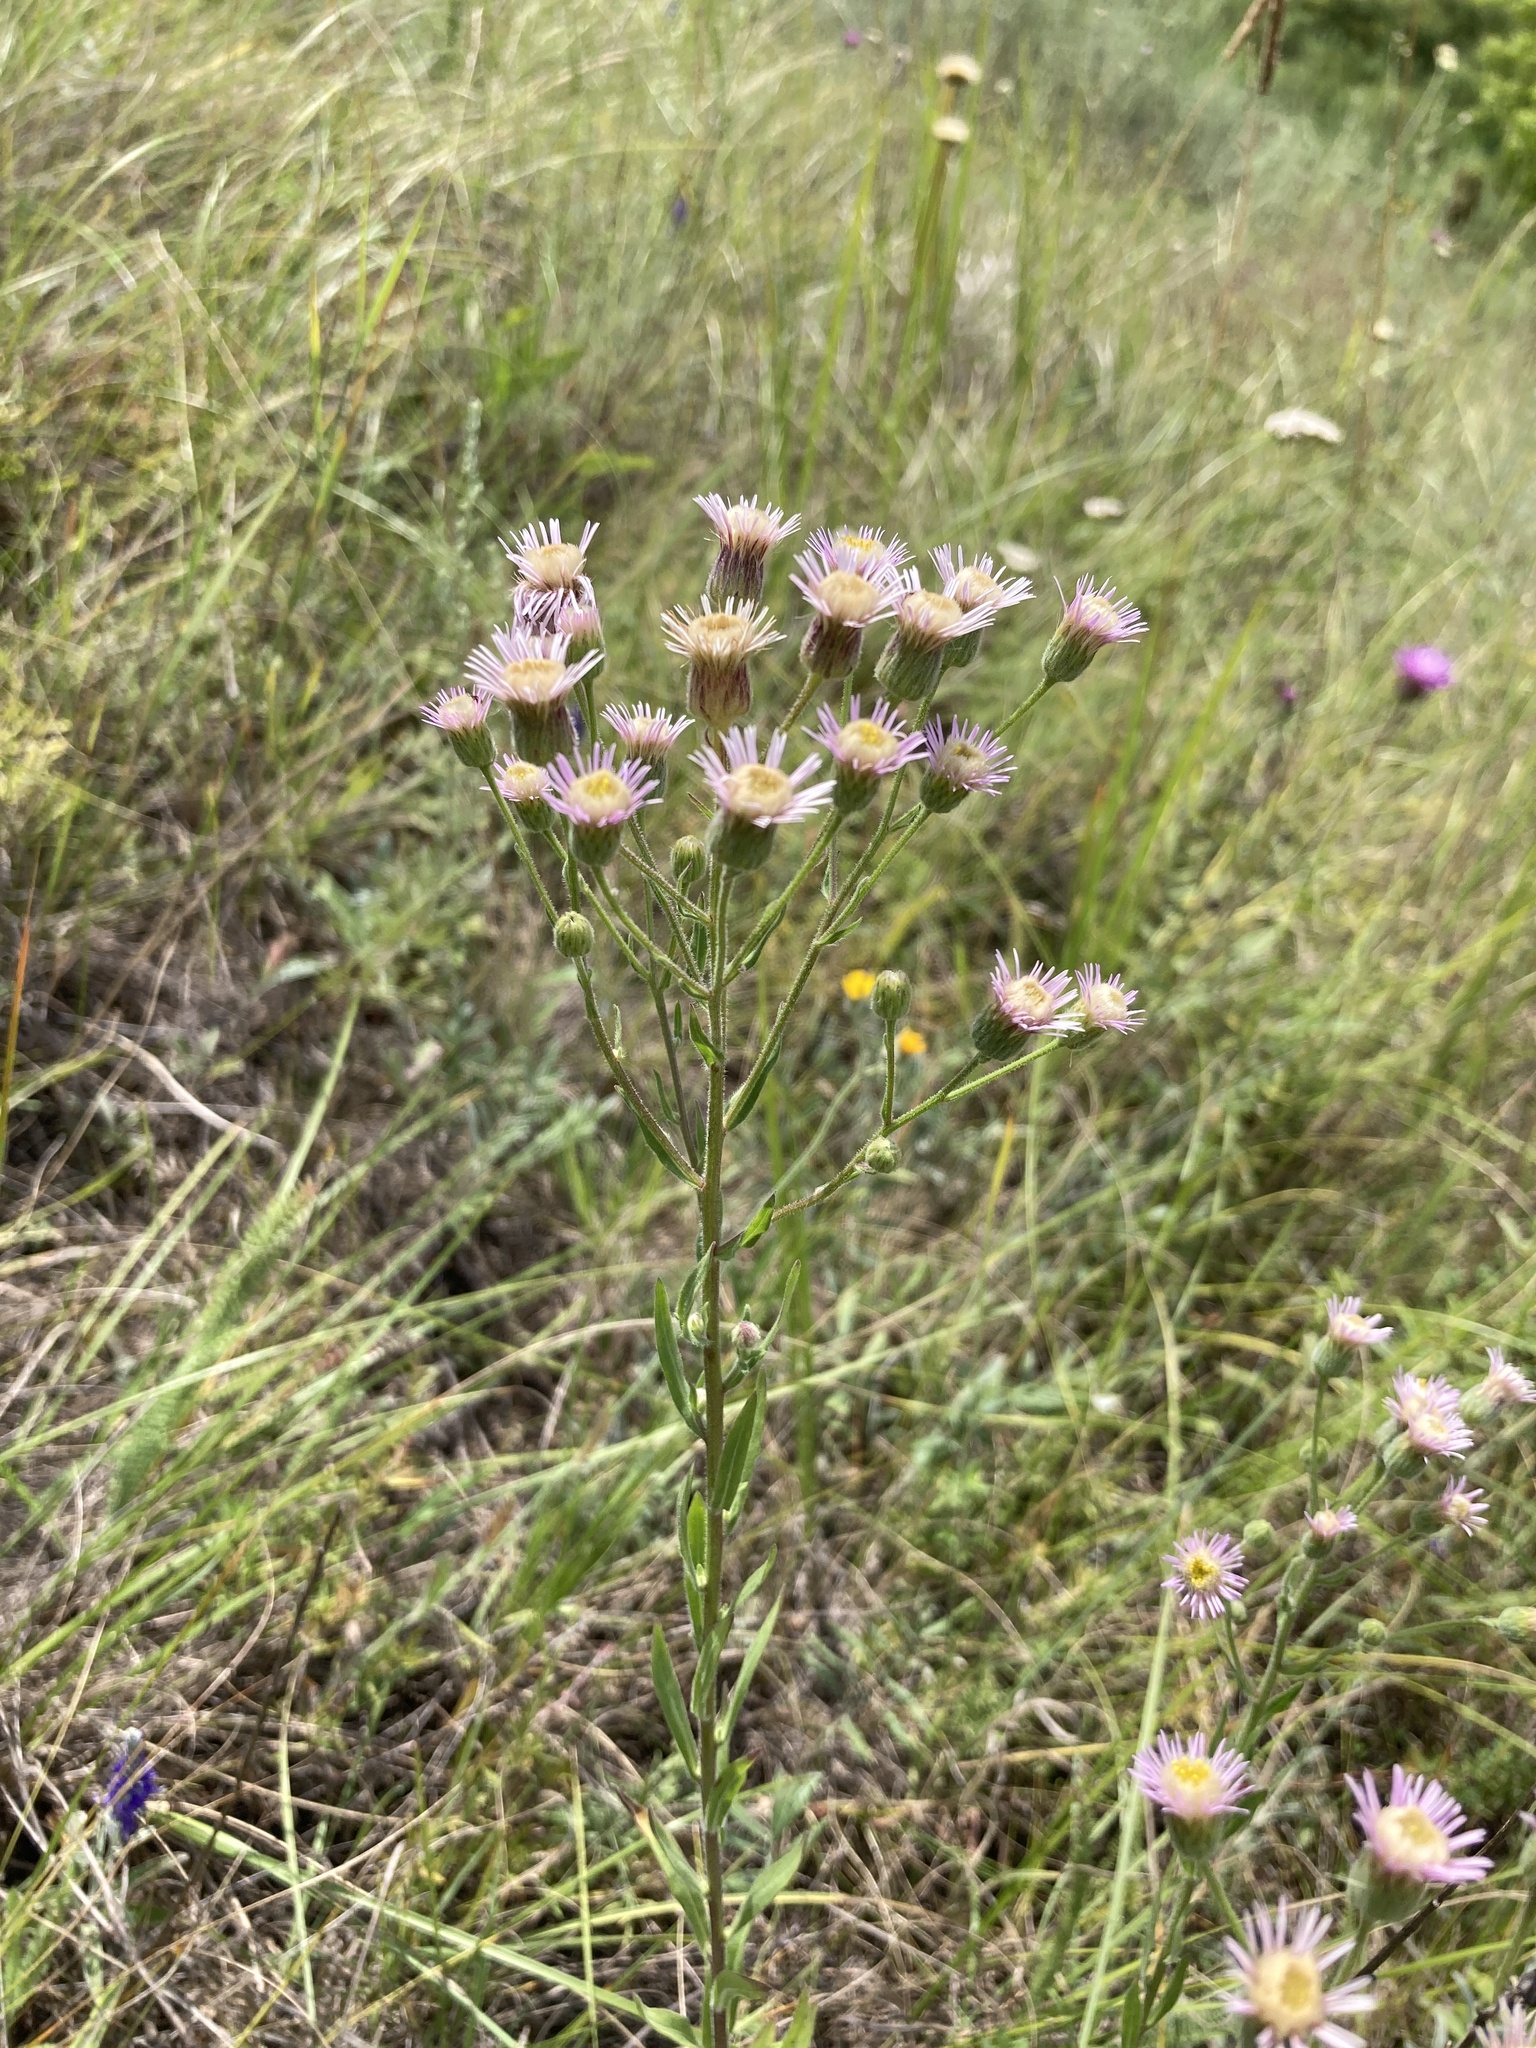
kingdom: Plantae
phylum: Tracheophyta
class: Magnoliopsida
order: Asterales
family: Asteraceae
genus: Erigeron
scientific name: Erigeron acris
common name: Blue fleabane
